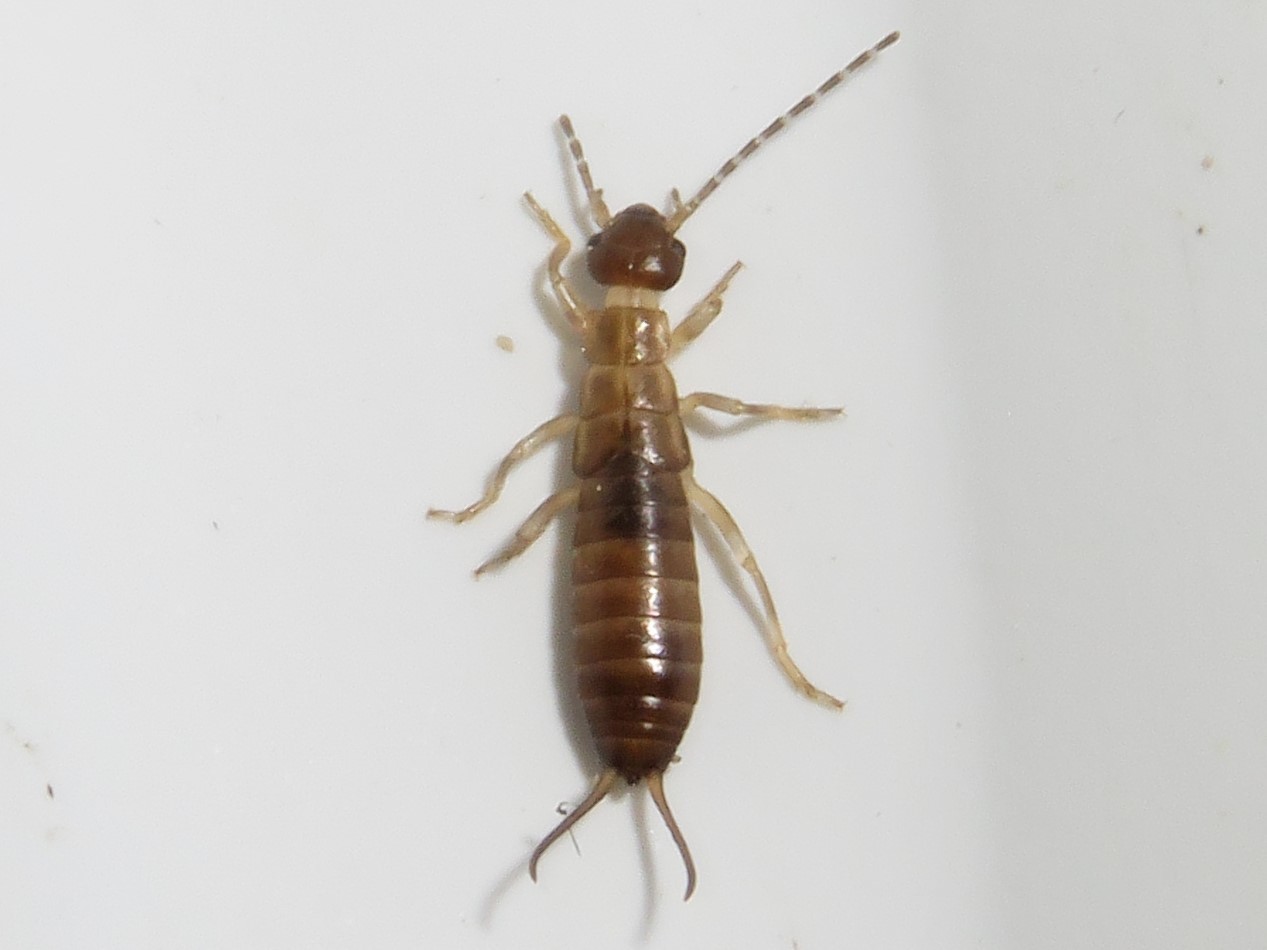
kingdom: Animalia
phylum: Arthropoda
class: Insecta
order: Dermaptera
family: Forficulidae
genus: Forficula
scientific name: Forficula
